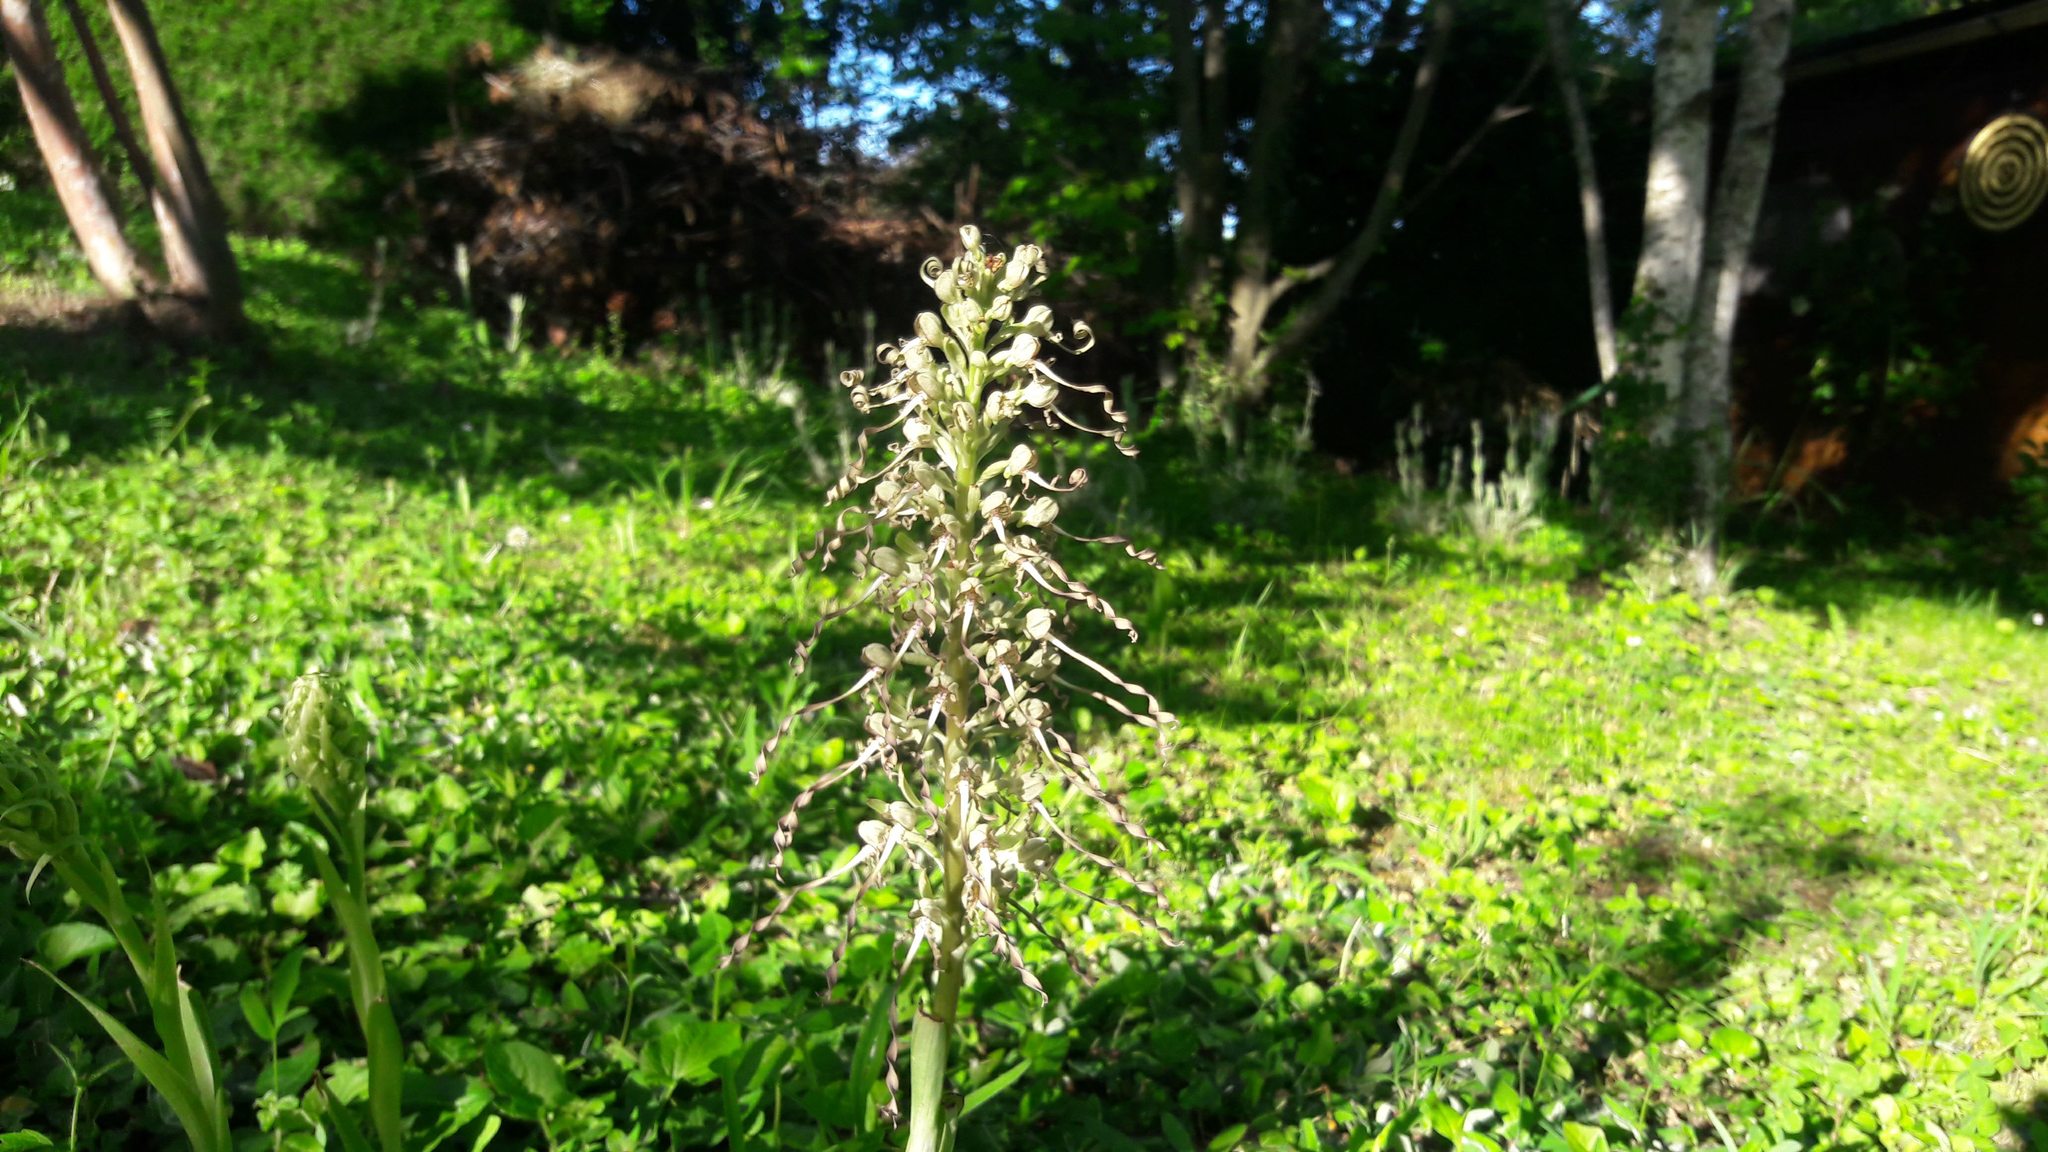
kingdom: Plantae
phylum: Tracheophyta
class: Liliopsida
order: Asparagales
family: Orchidaceae
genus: Himantoglossum
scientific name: Himantoglossum hircinum
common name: Lizard orchid
